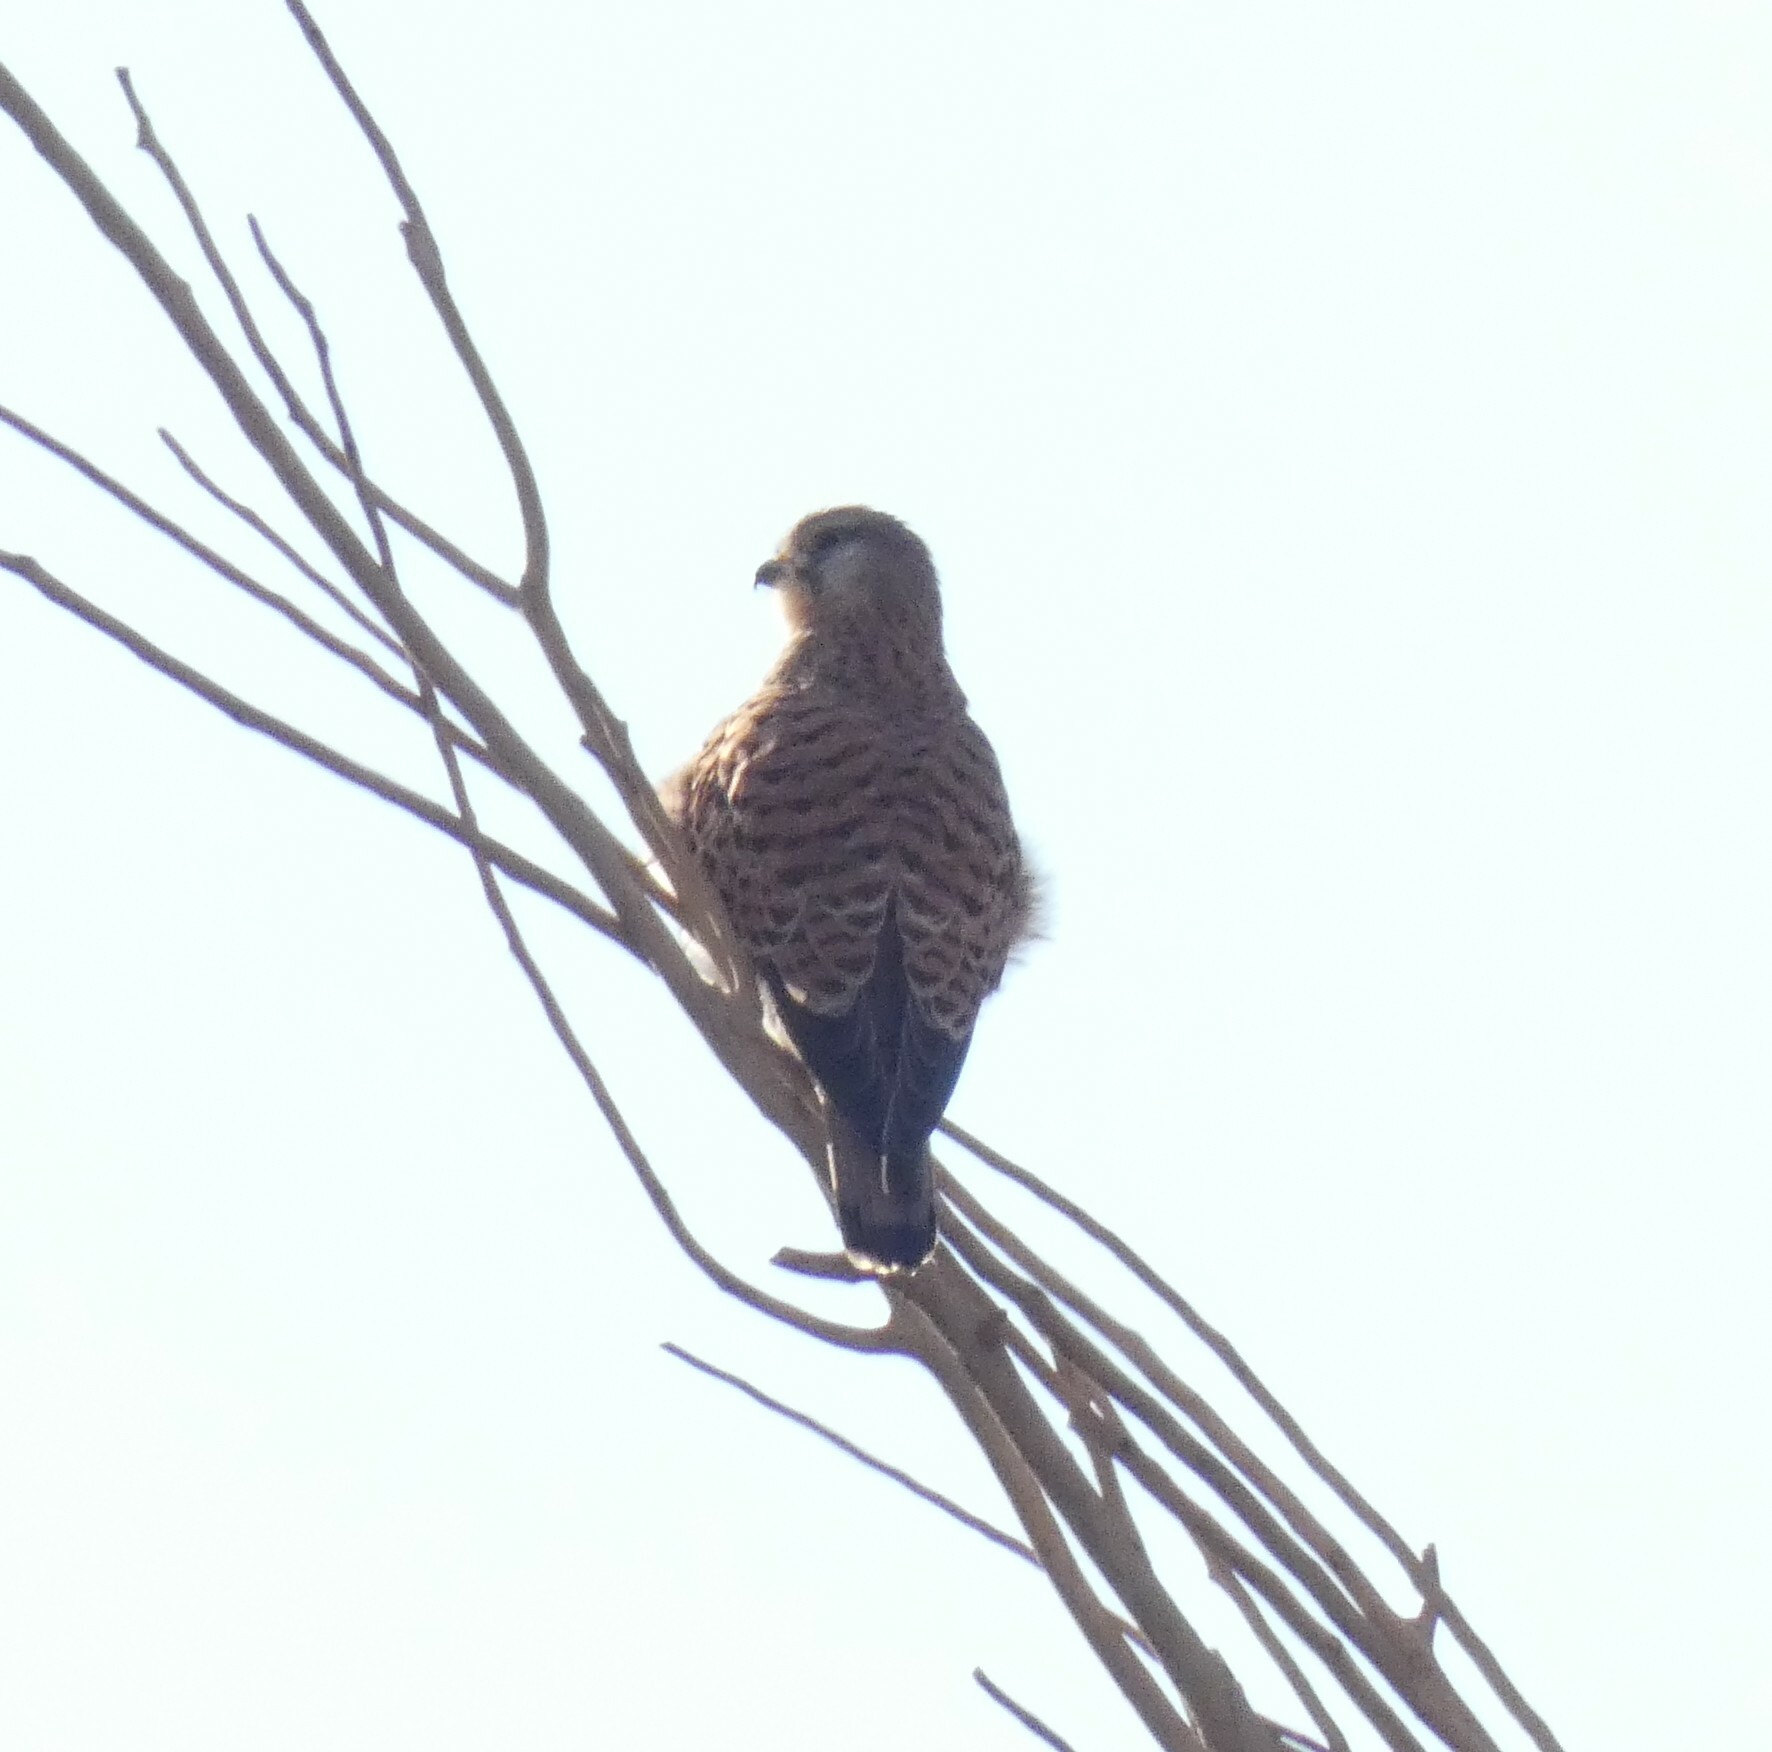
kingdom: Animalia
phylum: Chordata
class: Aves
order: Falconiformes
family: Falconidae
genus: Falco
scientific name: Falco tinnunculus
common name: Common kestrel
